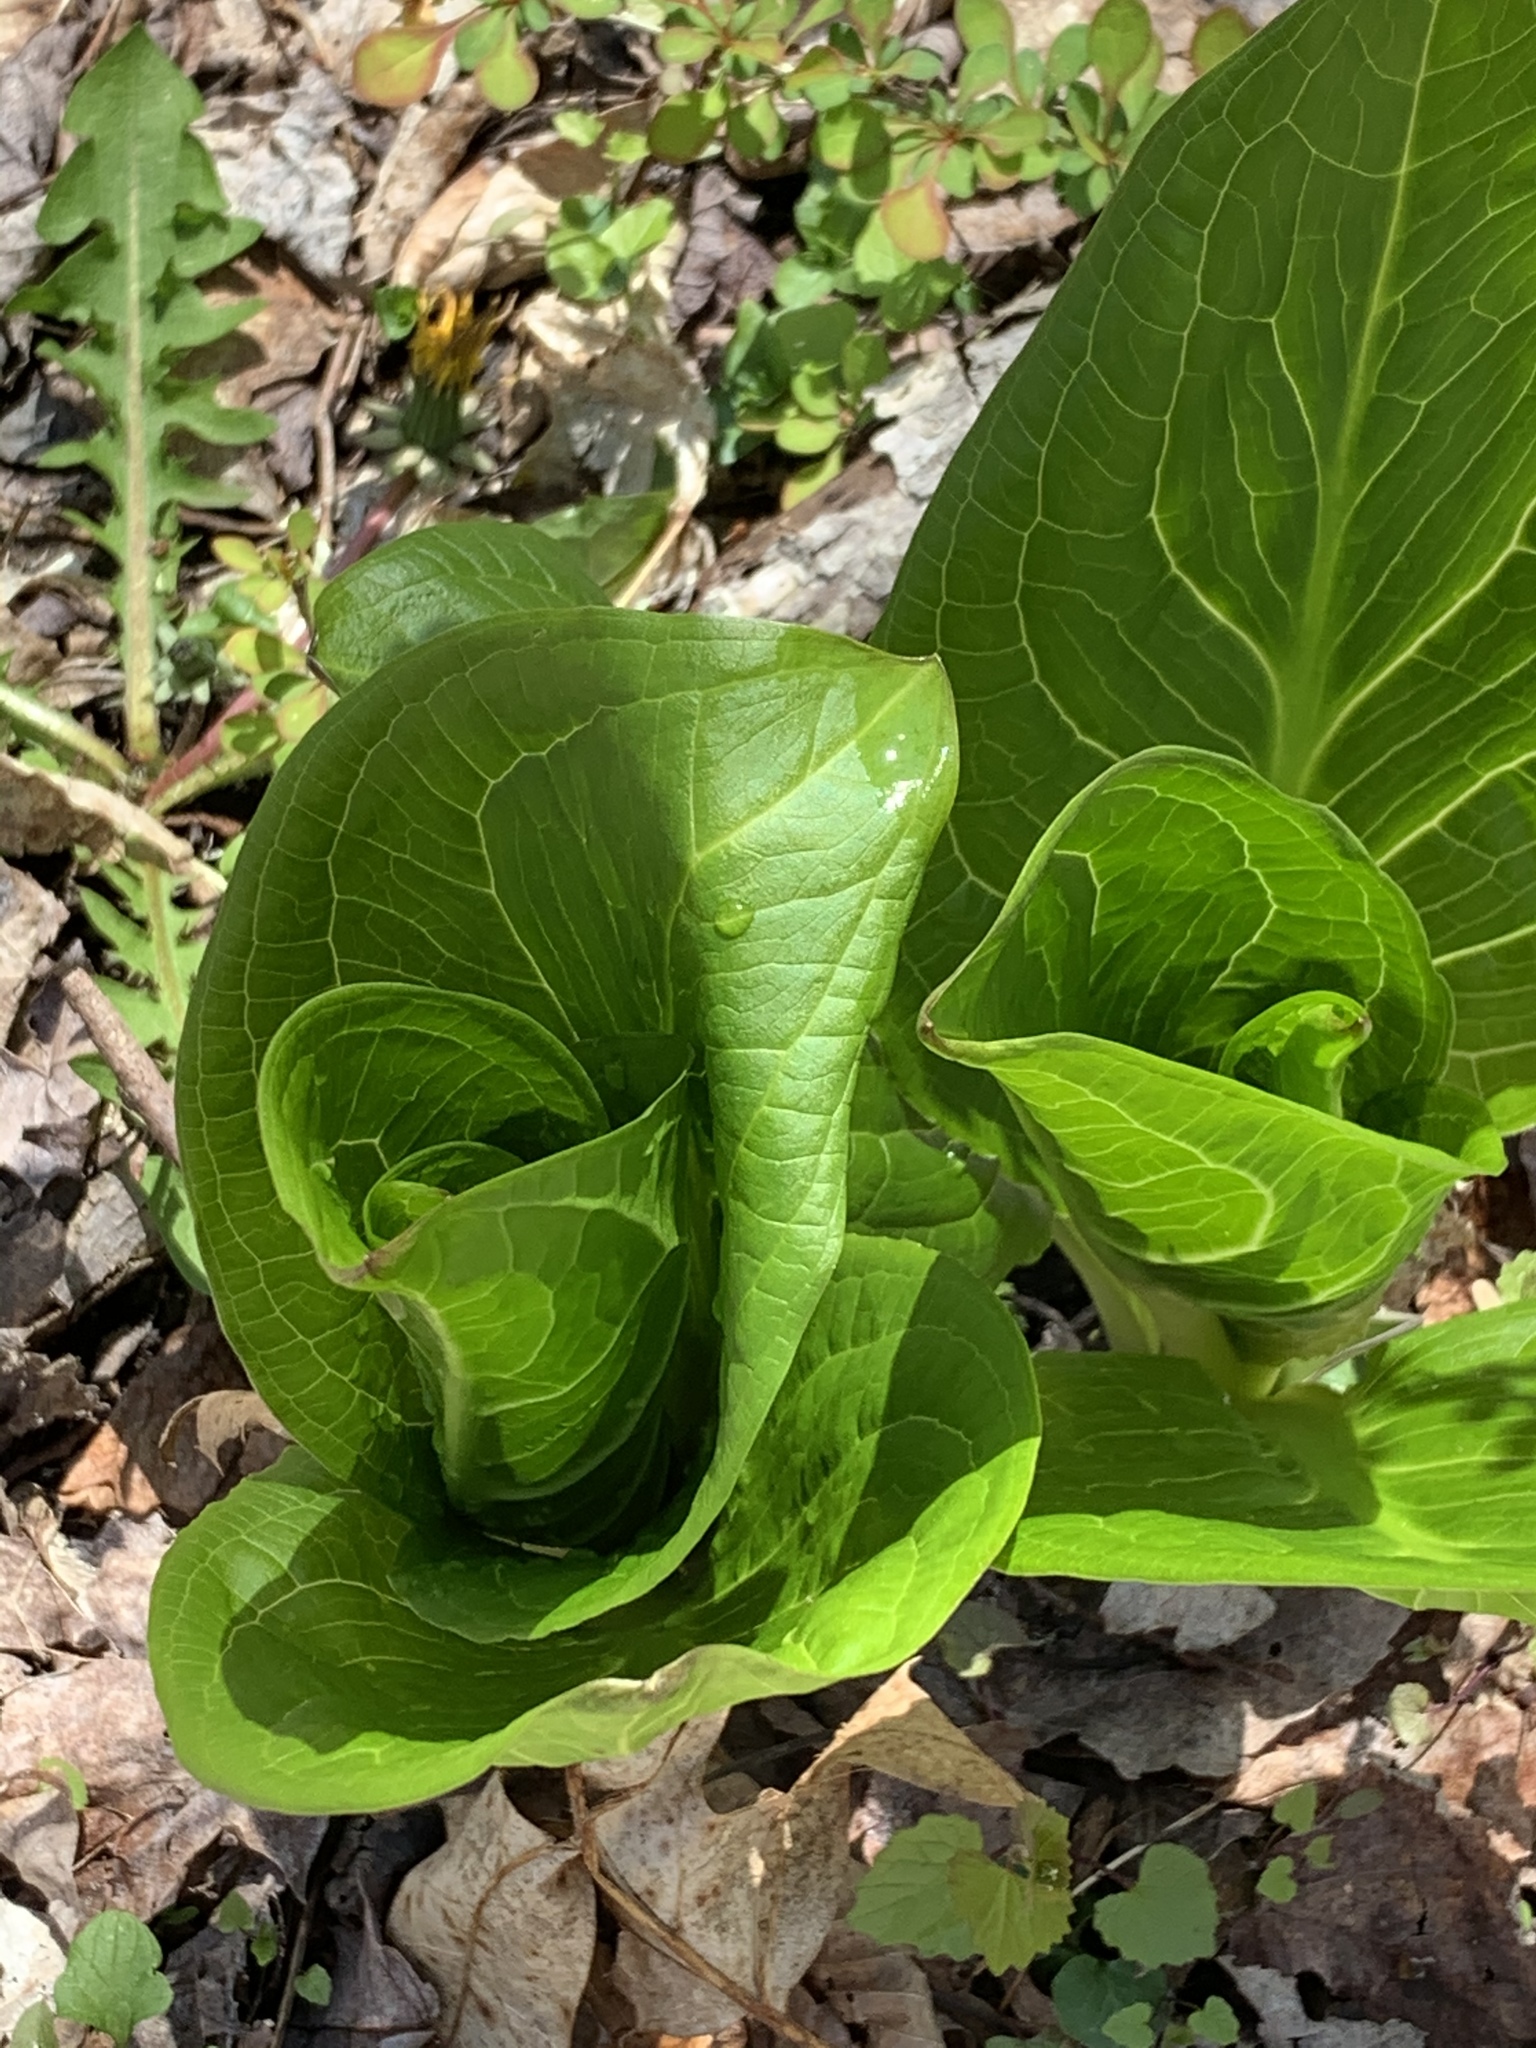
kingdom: Plantae
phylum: Tracheophyta
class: Liliopsida
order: Alismatales
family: Araceae
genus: Symplocarpus
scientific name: Symplocarpus foetidus
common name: Eastern skunk cabbage
